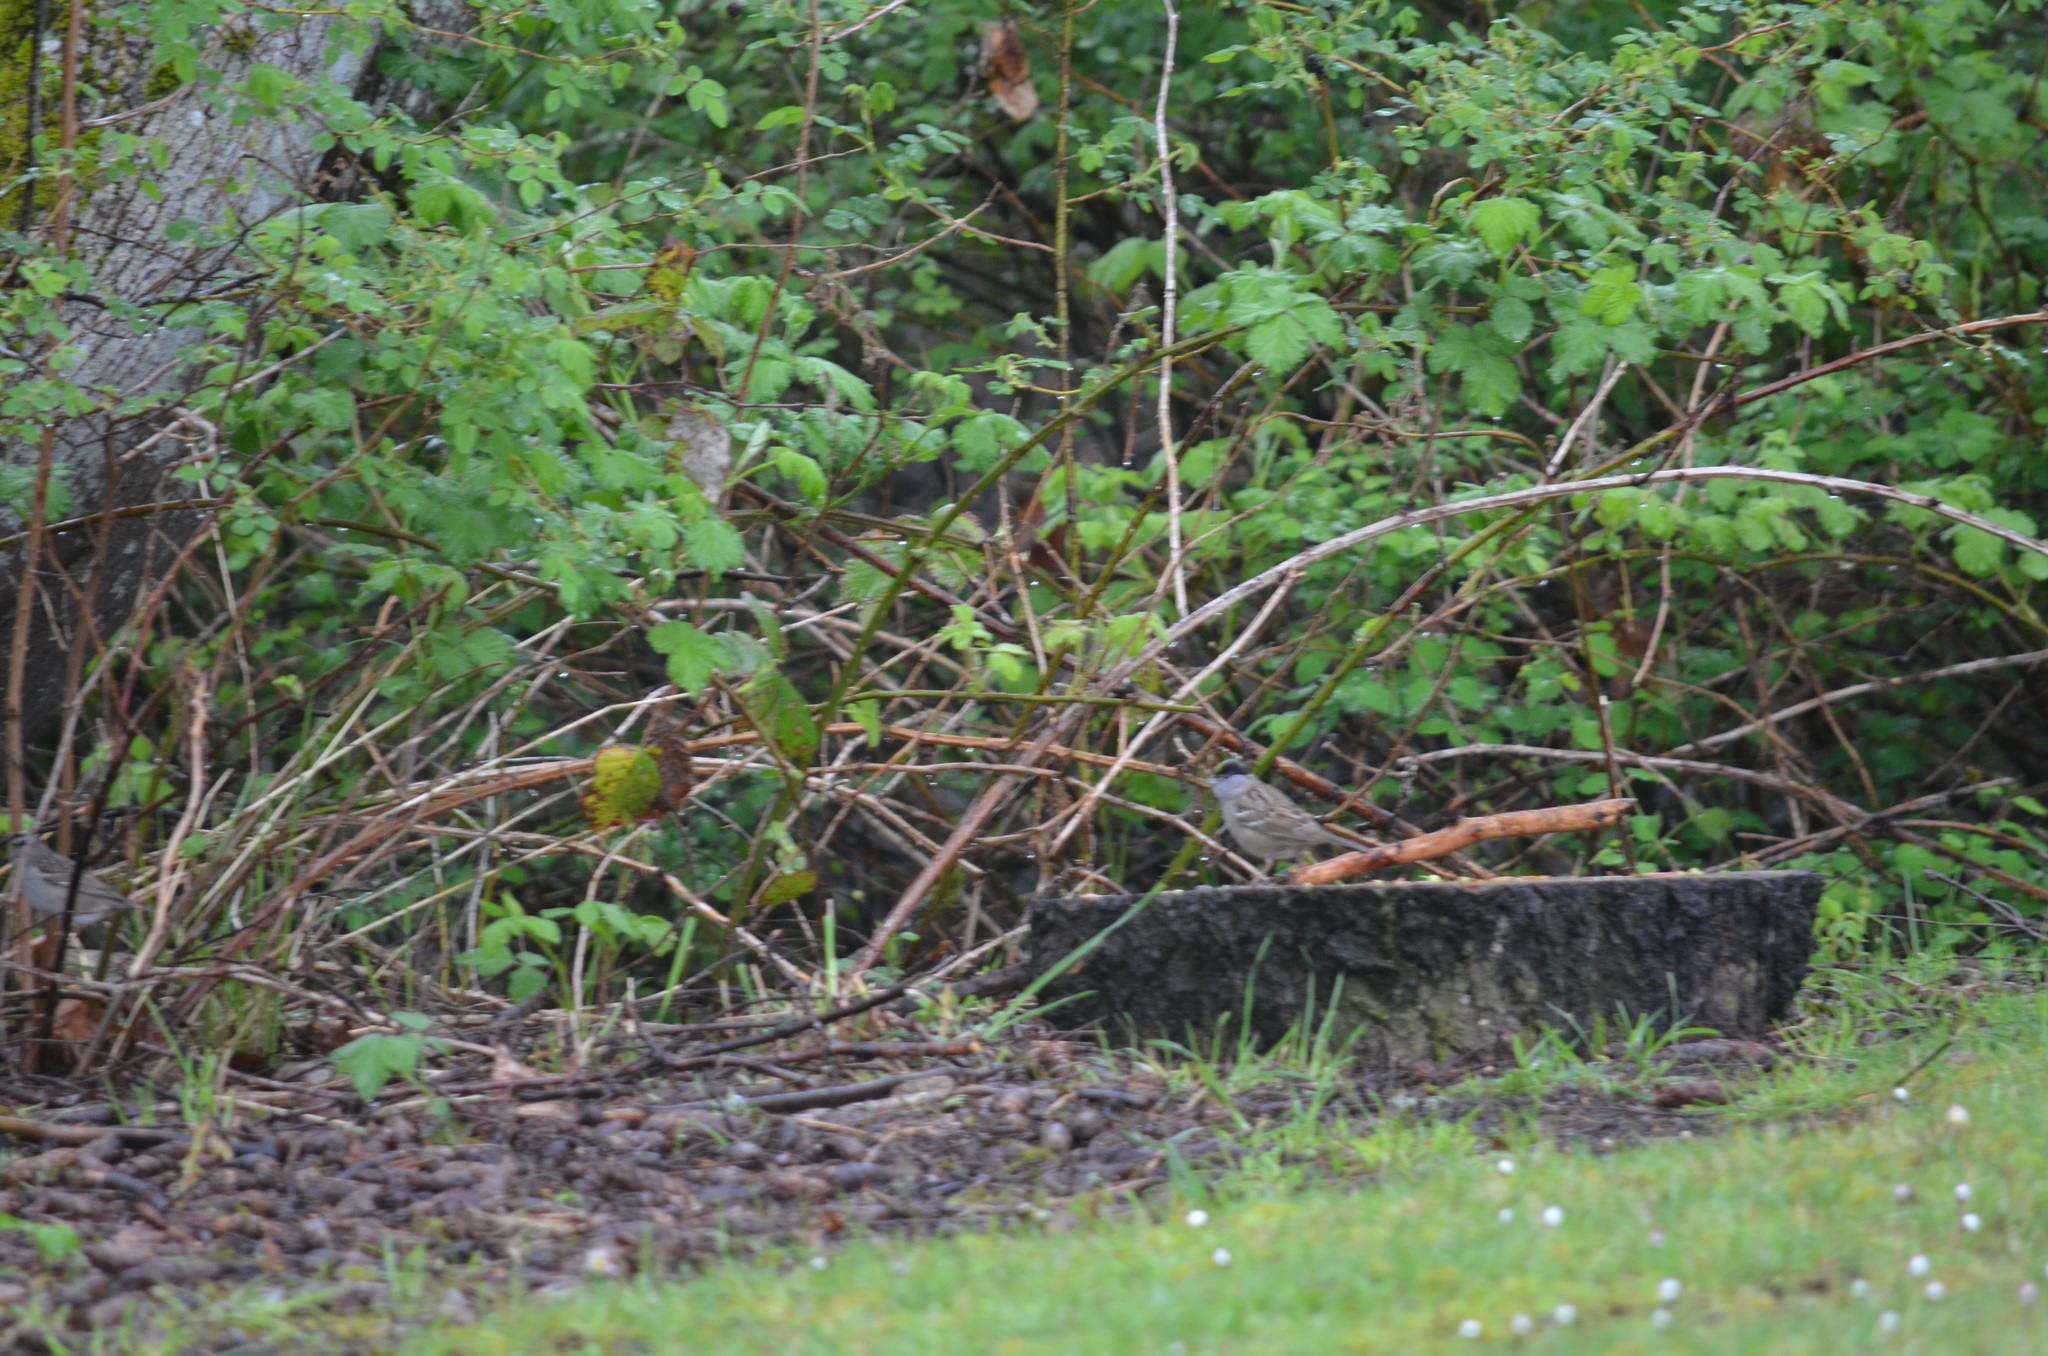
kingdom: Animalia
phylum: Chordata
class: Aves
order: Passeriformes
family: Passerellidae
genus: Zonotrichia
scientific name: Zonotrichia atricapilla
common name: Golden-crowned sparrow
